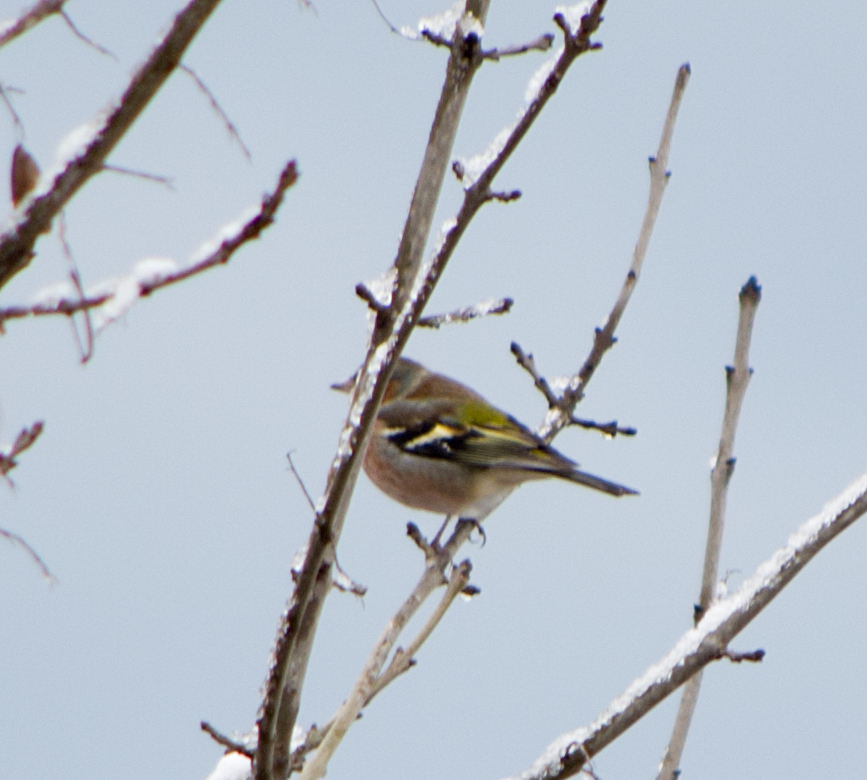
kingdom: Animalia
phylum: Chordata
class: Aves
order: Passeriformes
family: Fringillidae
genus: Fringilla
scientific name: Fringilla coelebs
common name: Common chaffinch
